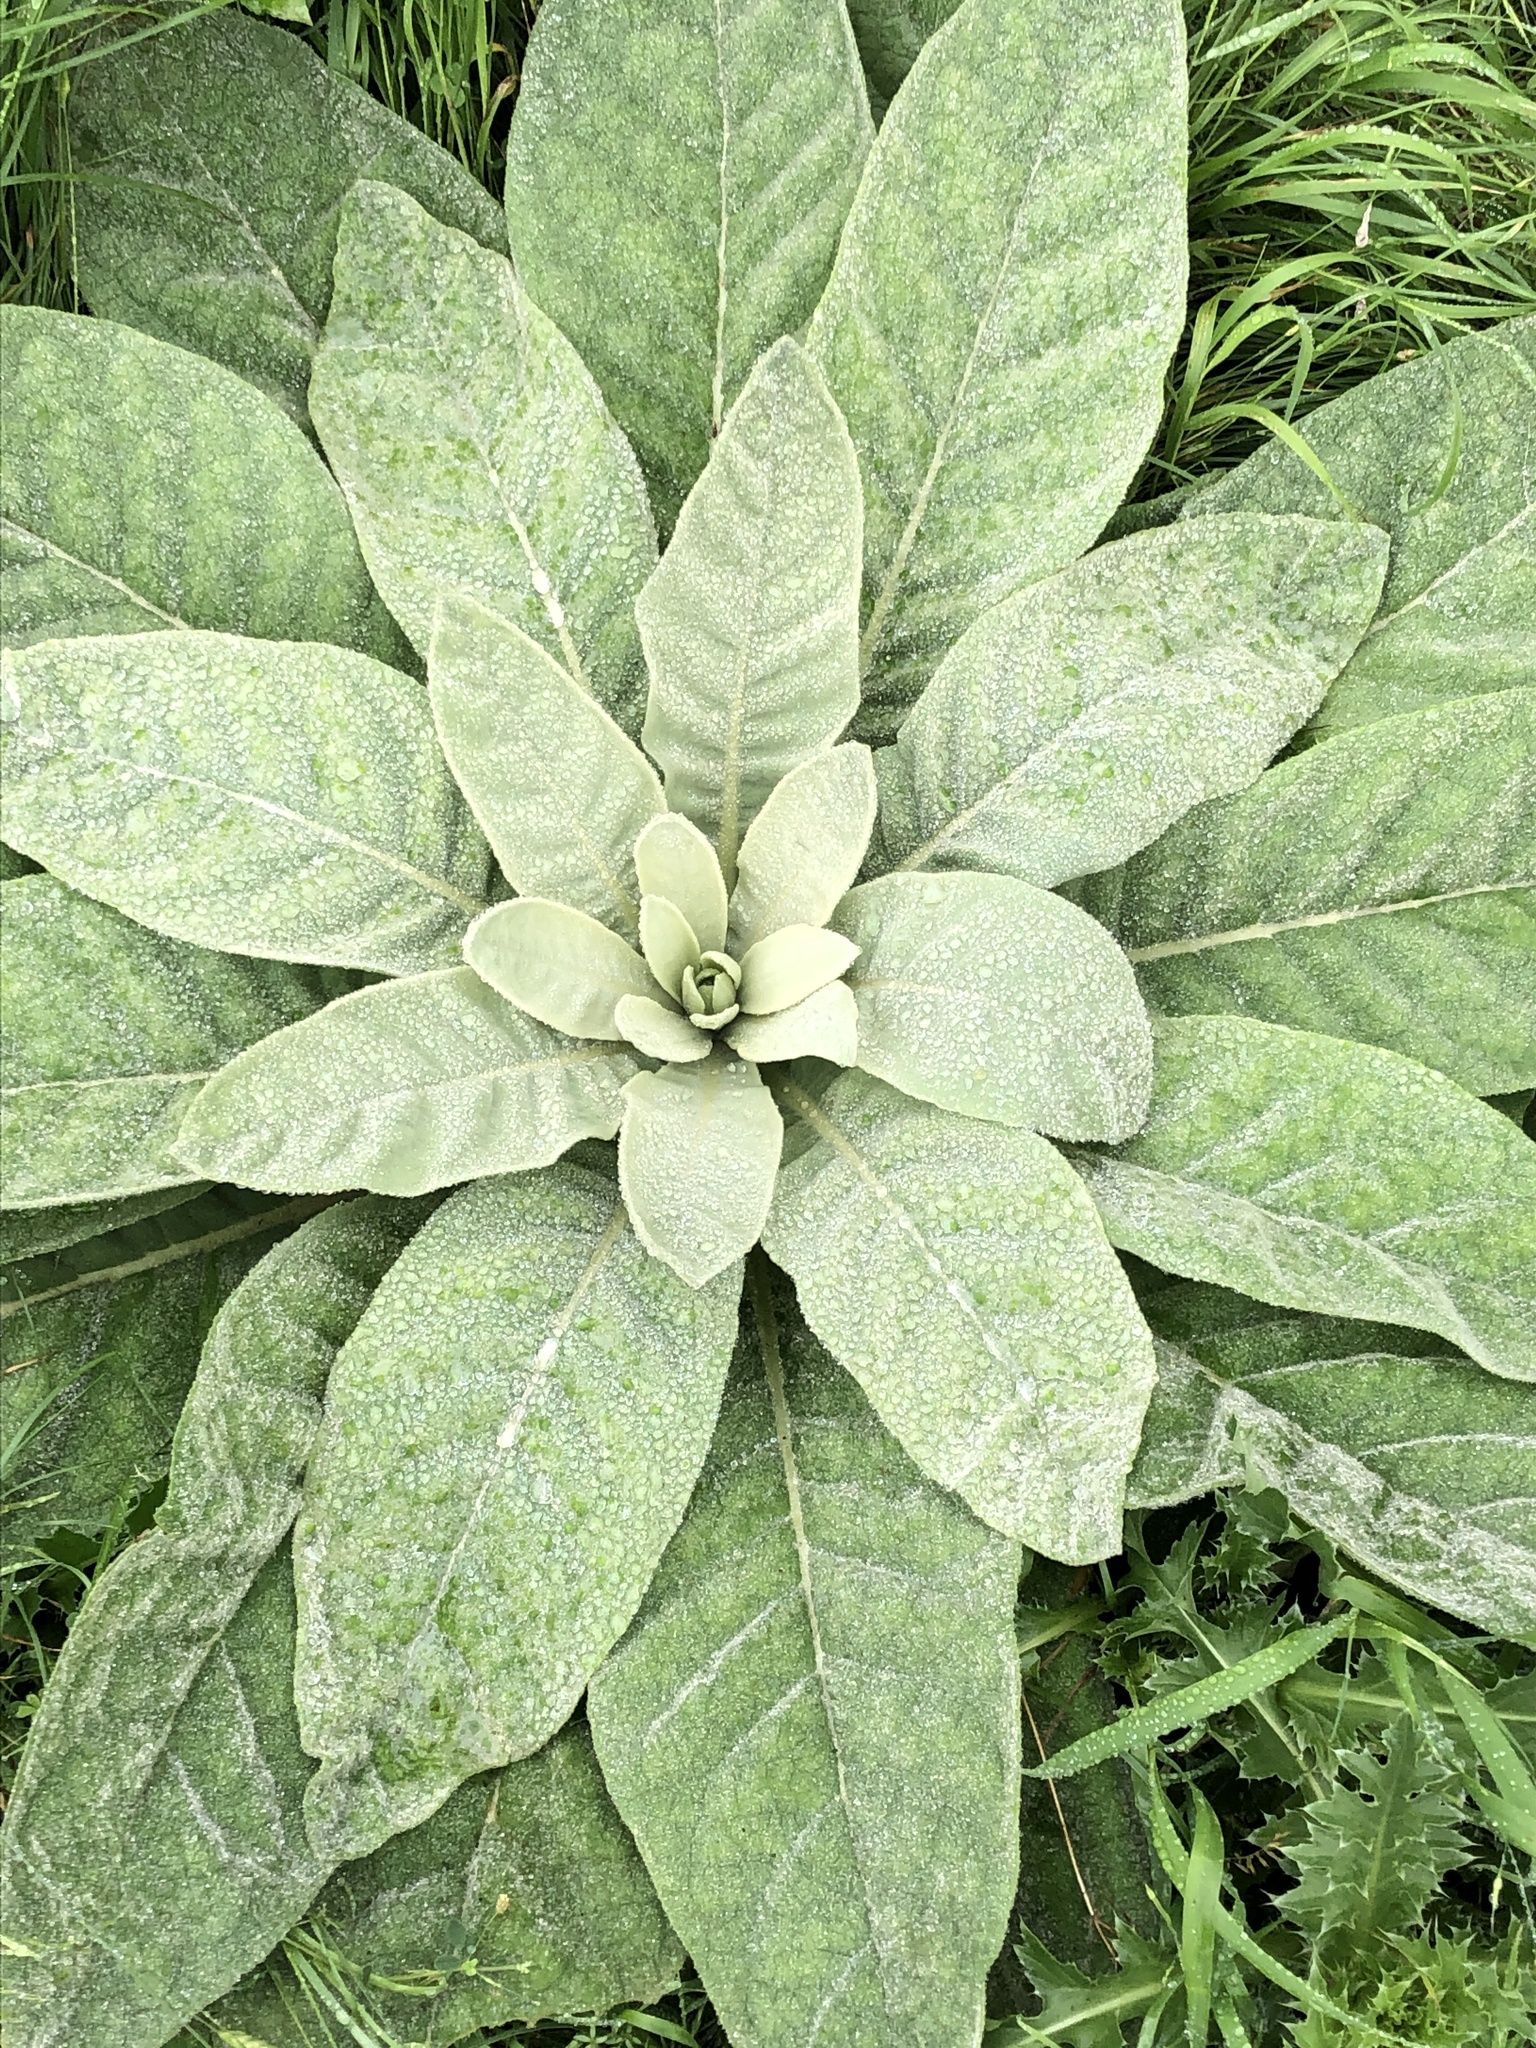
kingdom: Plantae
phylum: Tracheophyta
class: Magnoliopsida
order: Lamiales
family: Scrophulariaceae
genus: Verbascum
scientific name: Verbascum thapsus
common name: Common mullein
